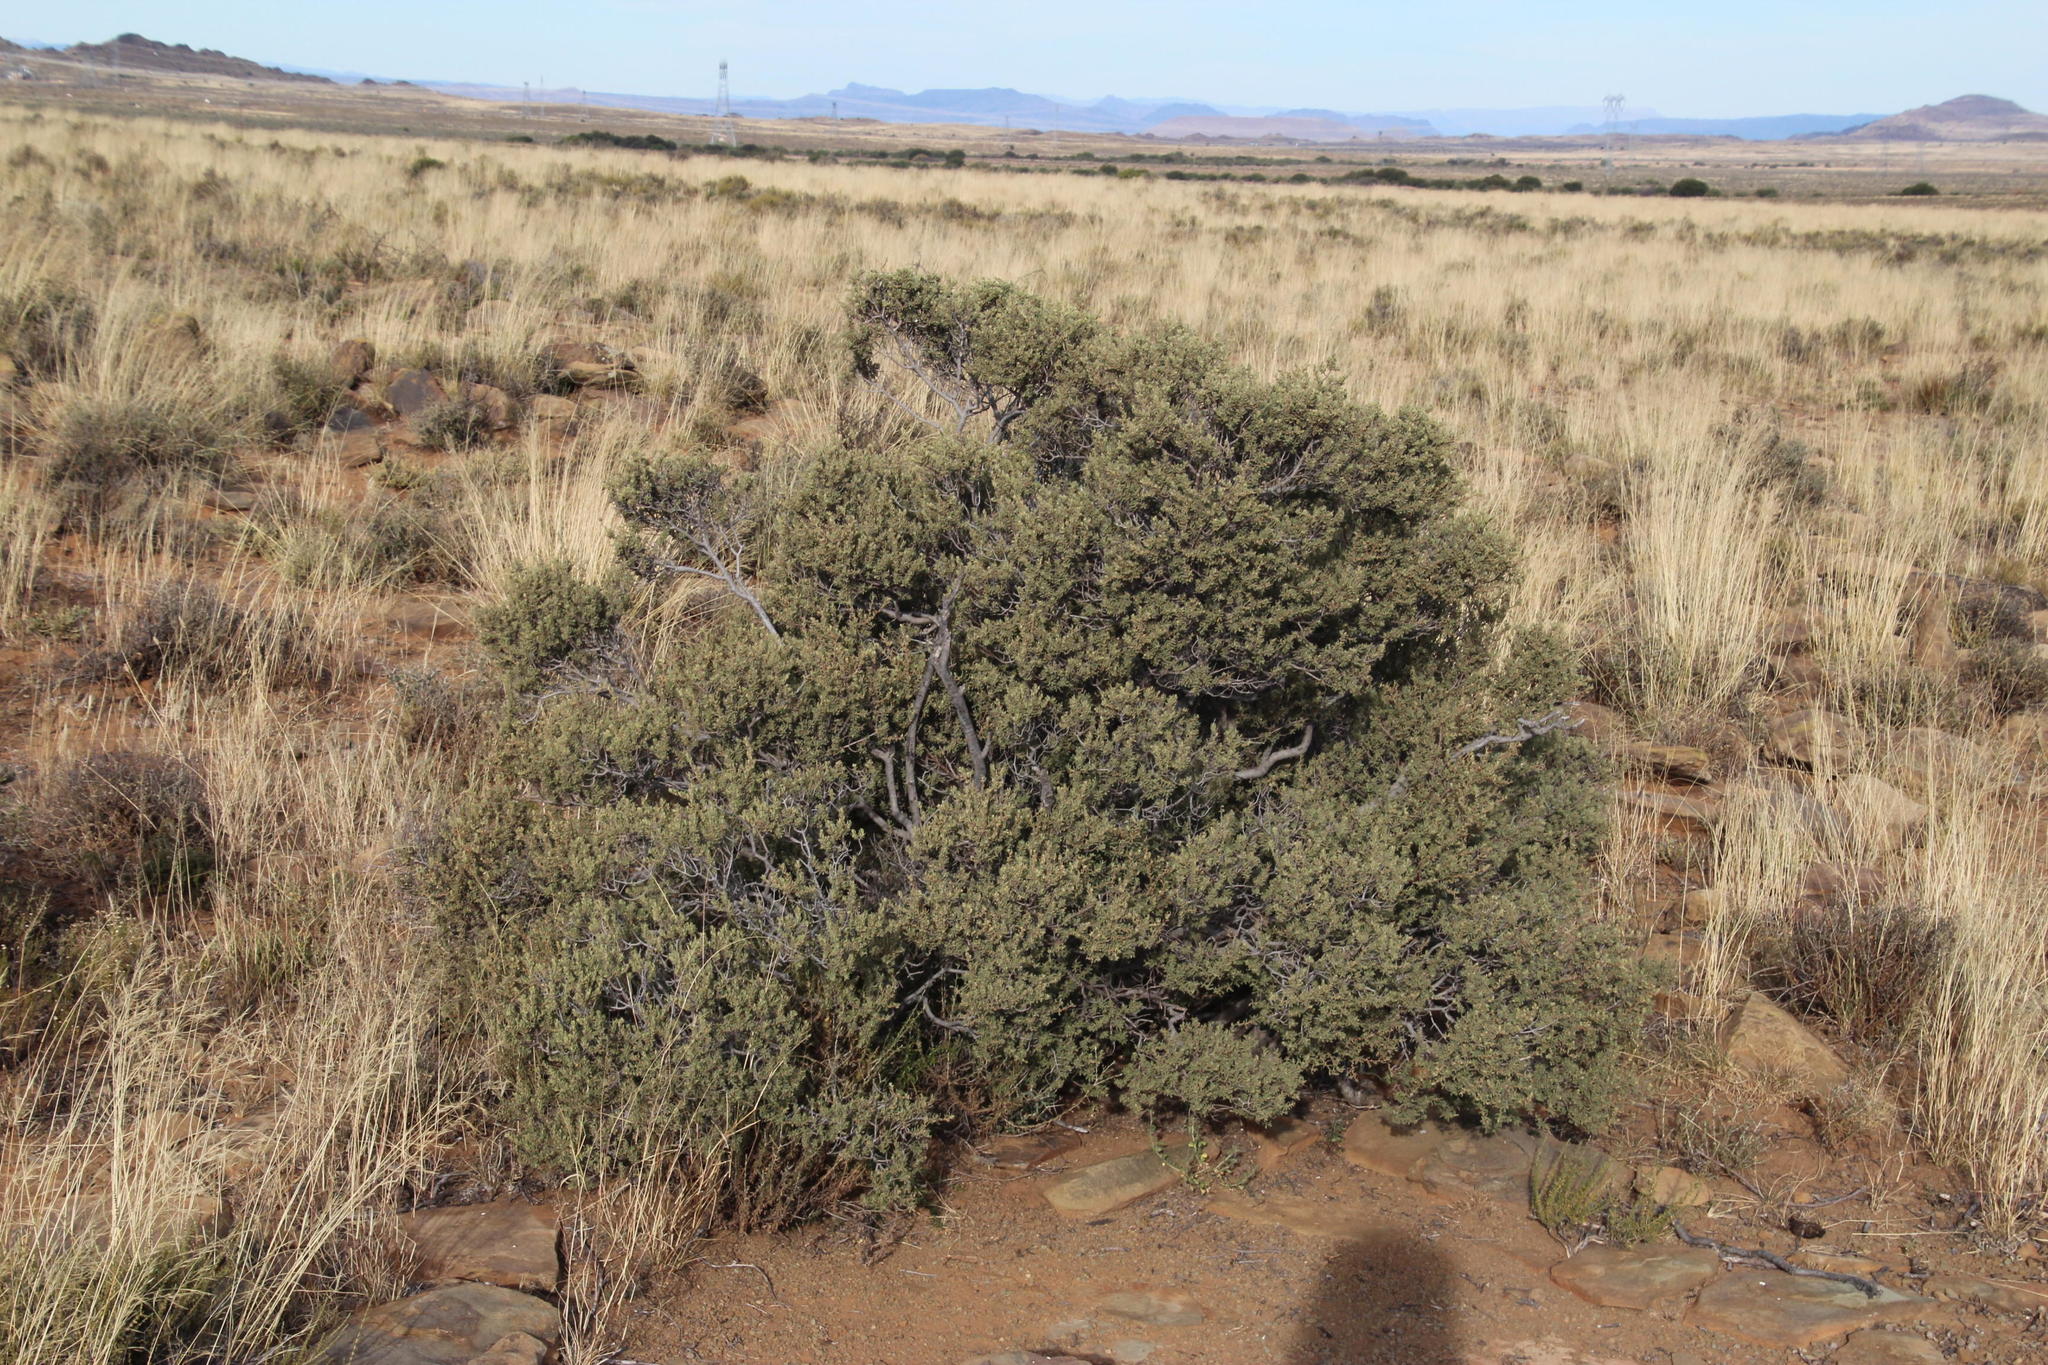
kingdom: Plantae
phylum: Tracheophyta
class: Magnoliopsida
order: Ericales
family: Ebenaceae
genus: Diospyros
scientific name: Diospyros pubescens
